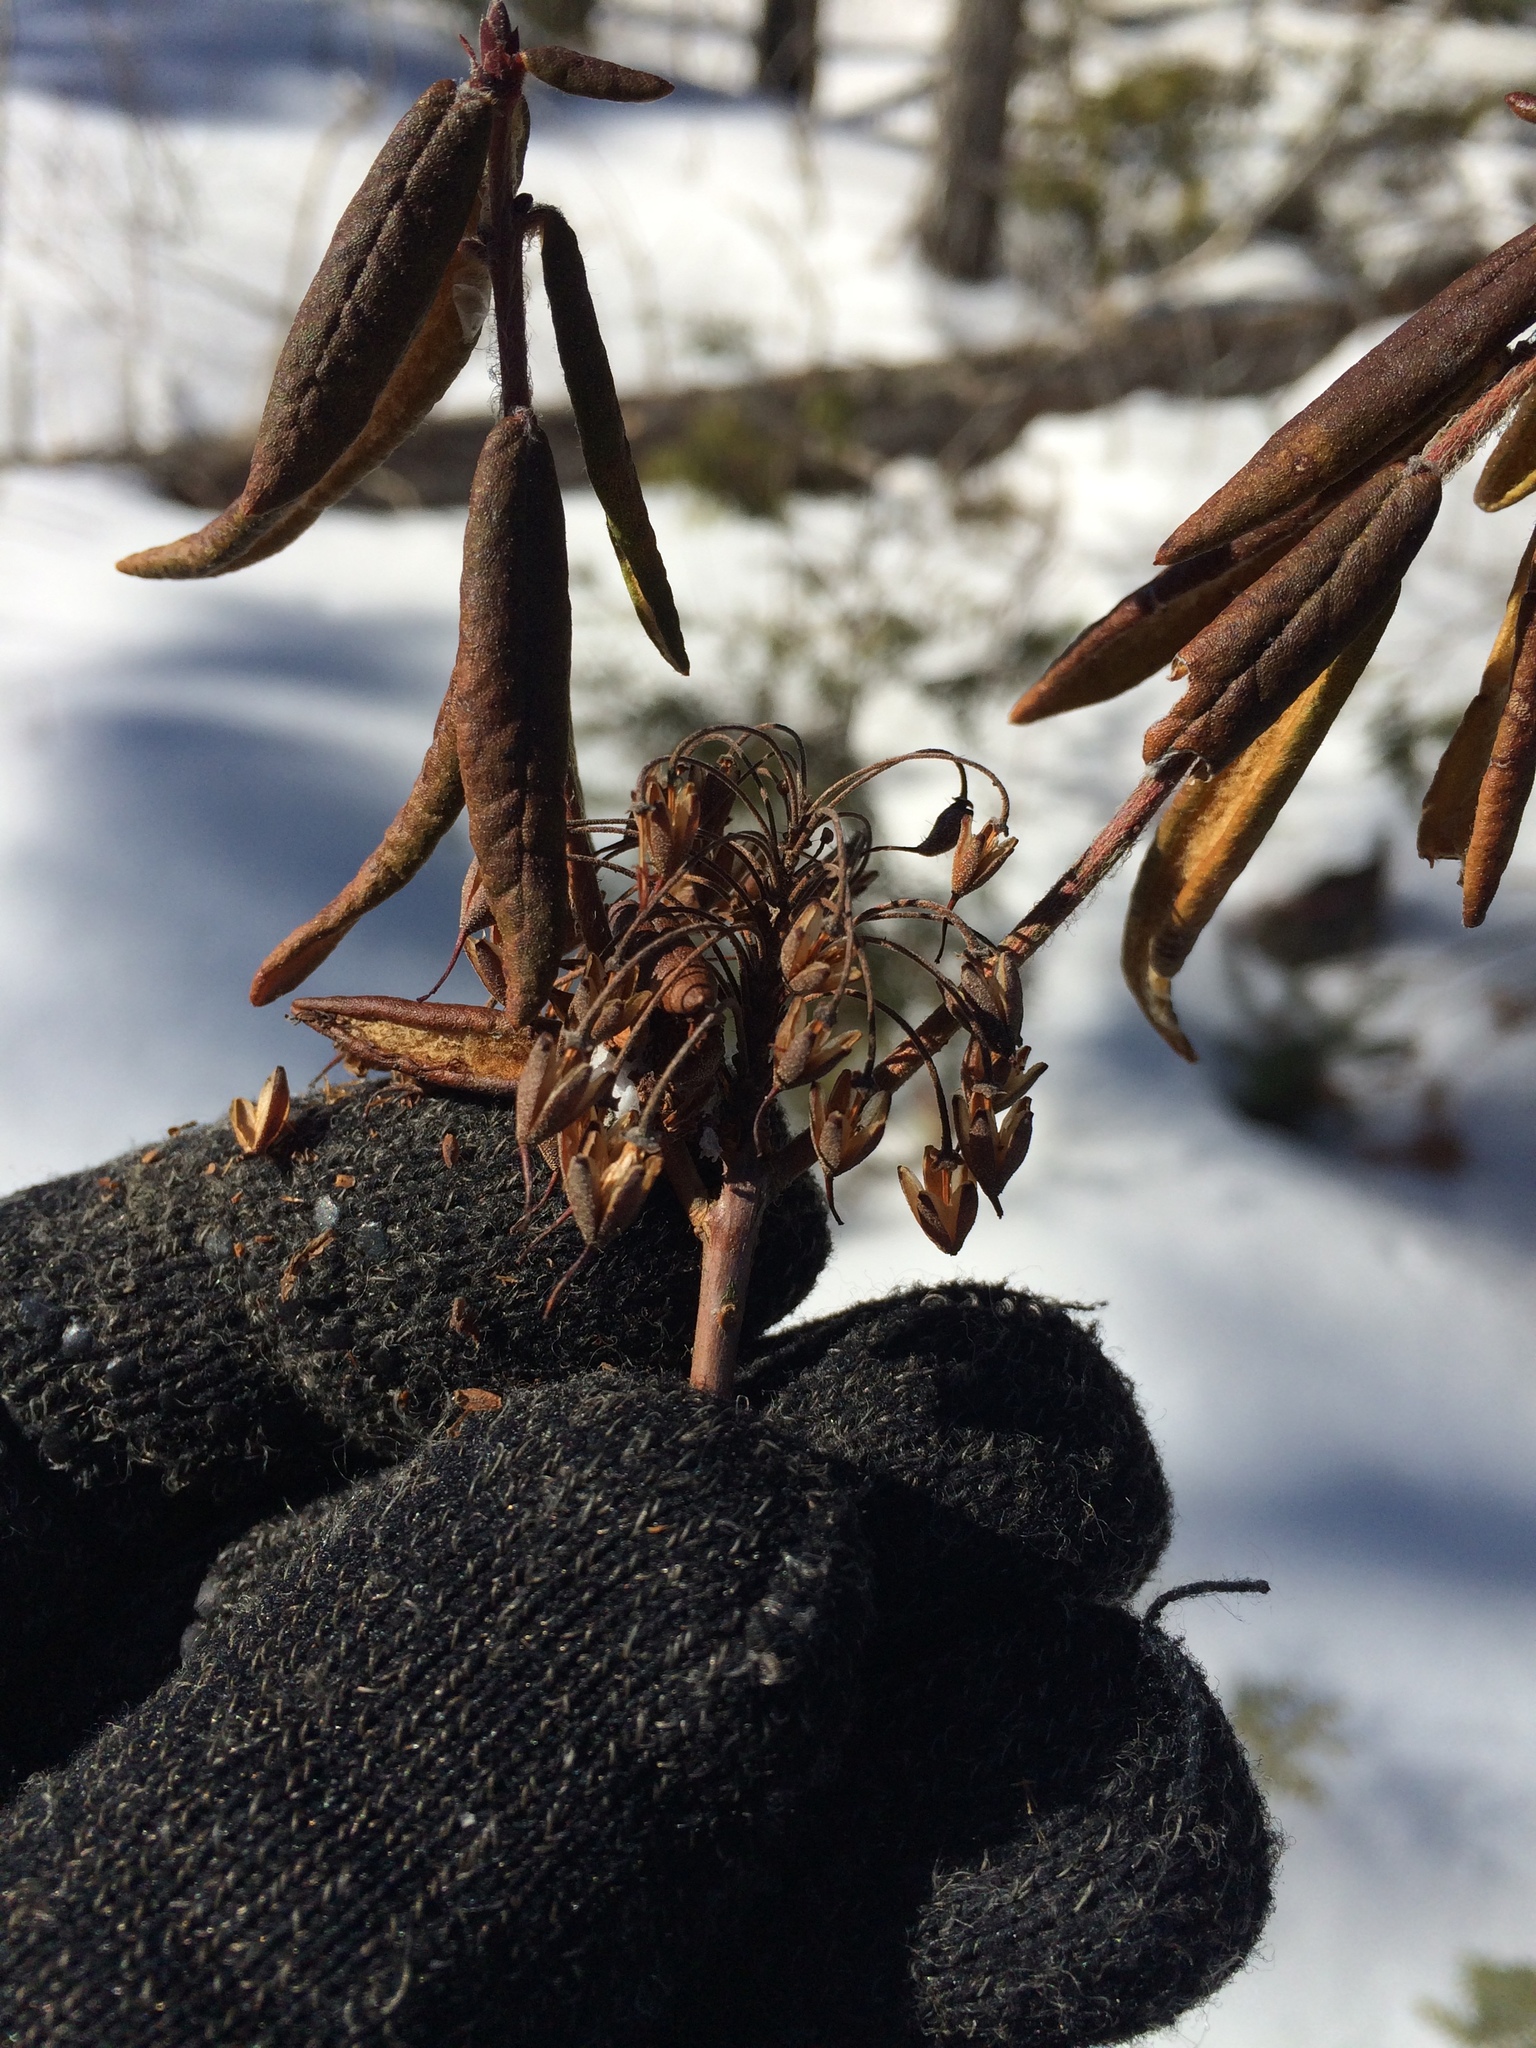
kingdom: Plantae
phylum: Tracheophyta
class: Magnoliopsida
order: Ericales
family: Ericaceae
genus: Rhododendron
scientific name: Rhododendron groenlandicum
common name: Bog labrador tea
